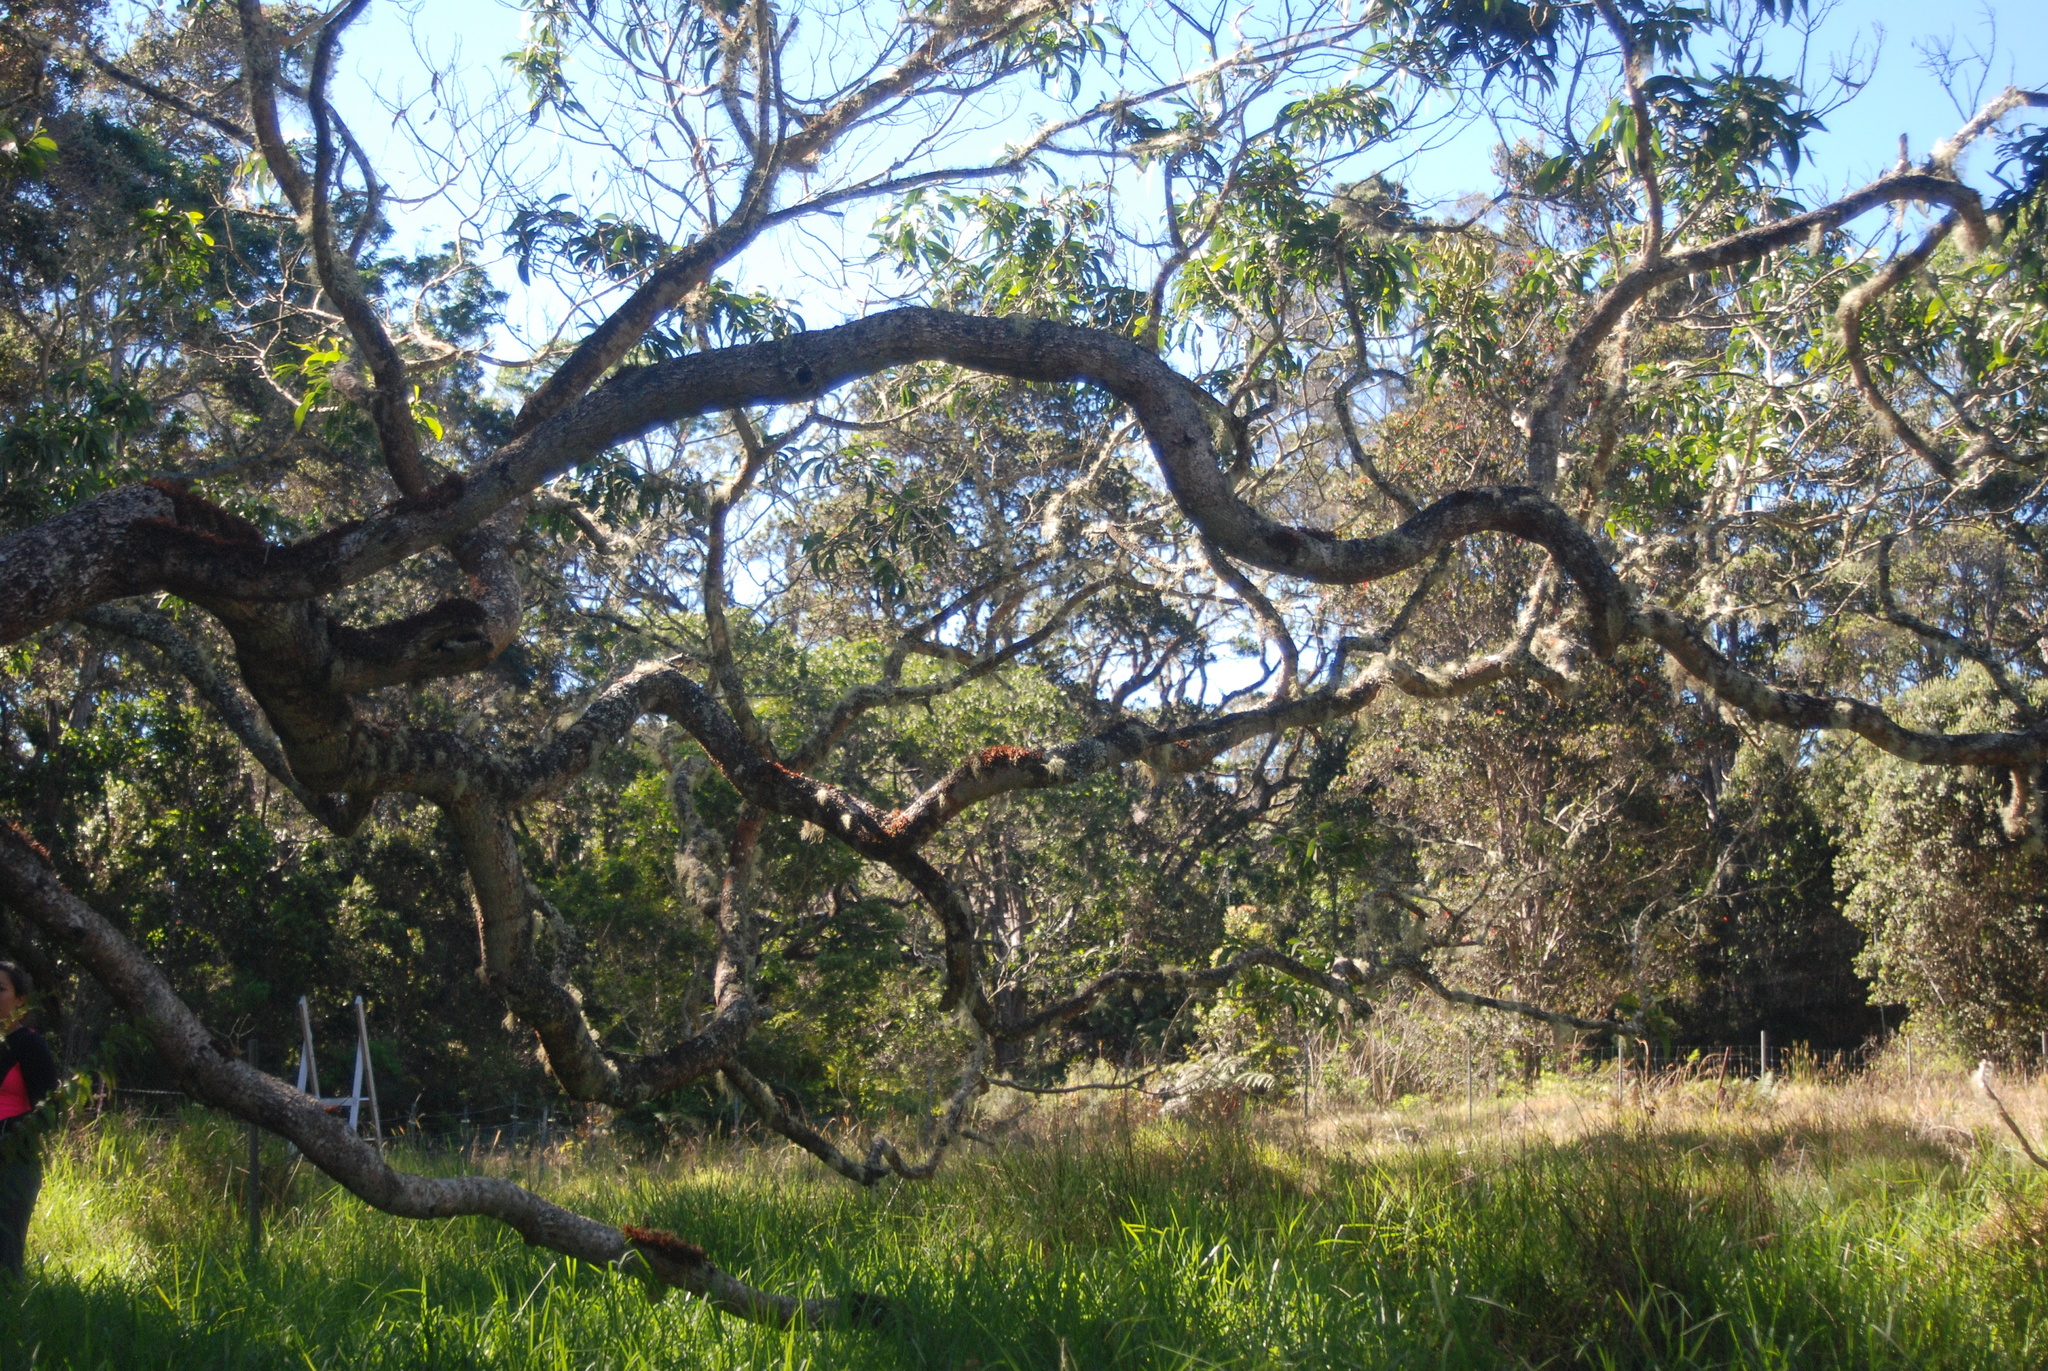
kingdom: Plantae
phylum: Tracheophyta
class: Magnoliopsida
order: Fabales
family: Fabaceae
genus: Acacia
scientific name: Acacia koa
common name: Gray koa
